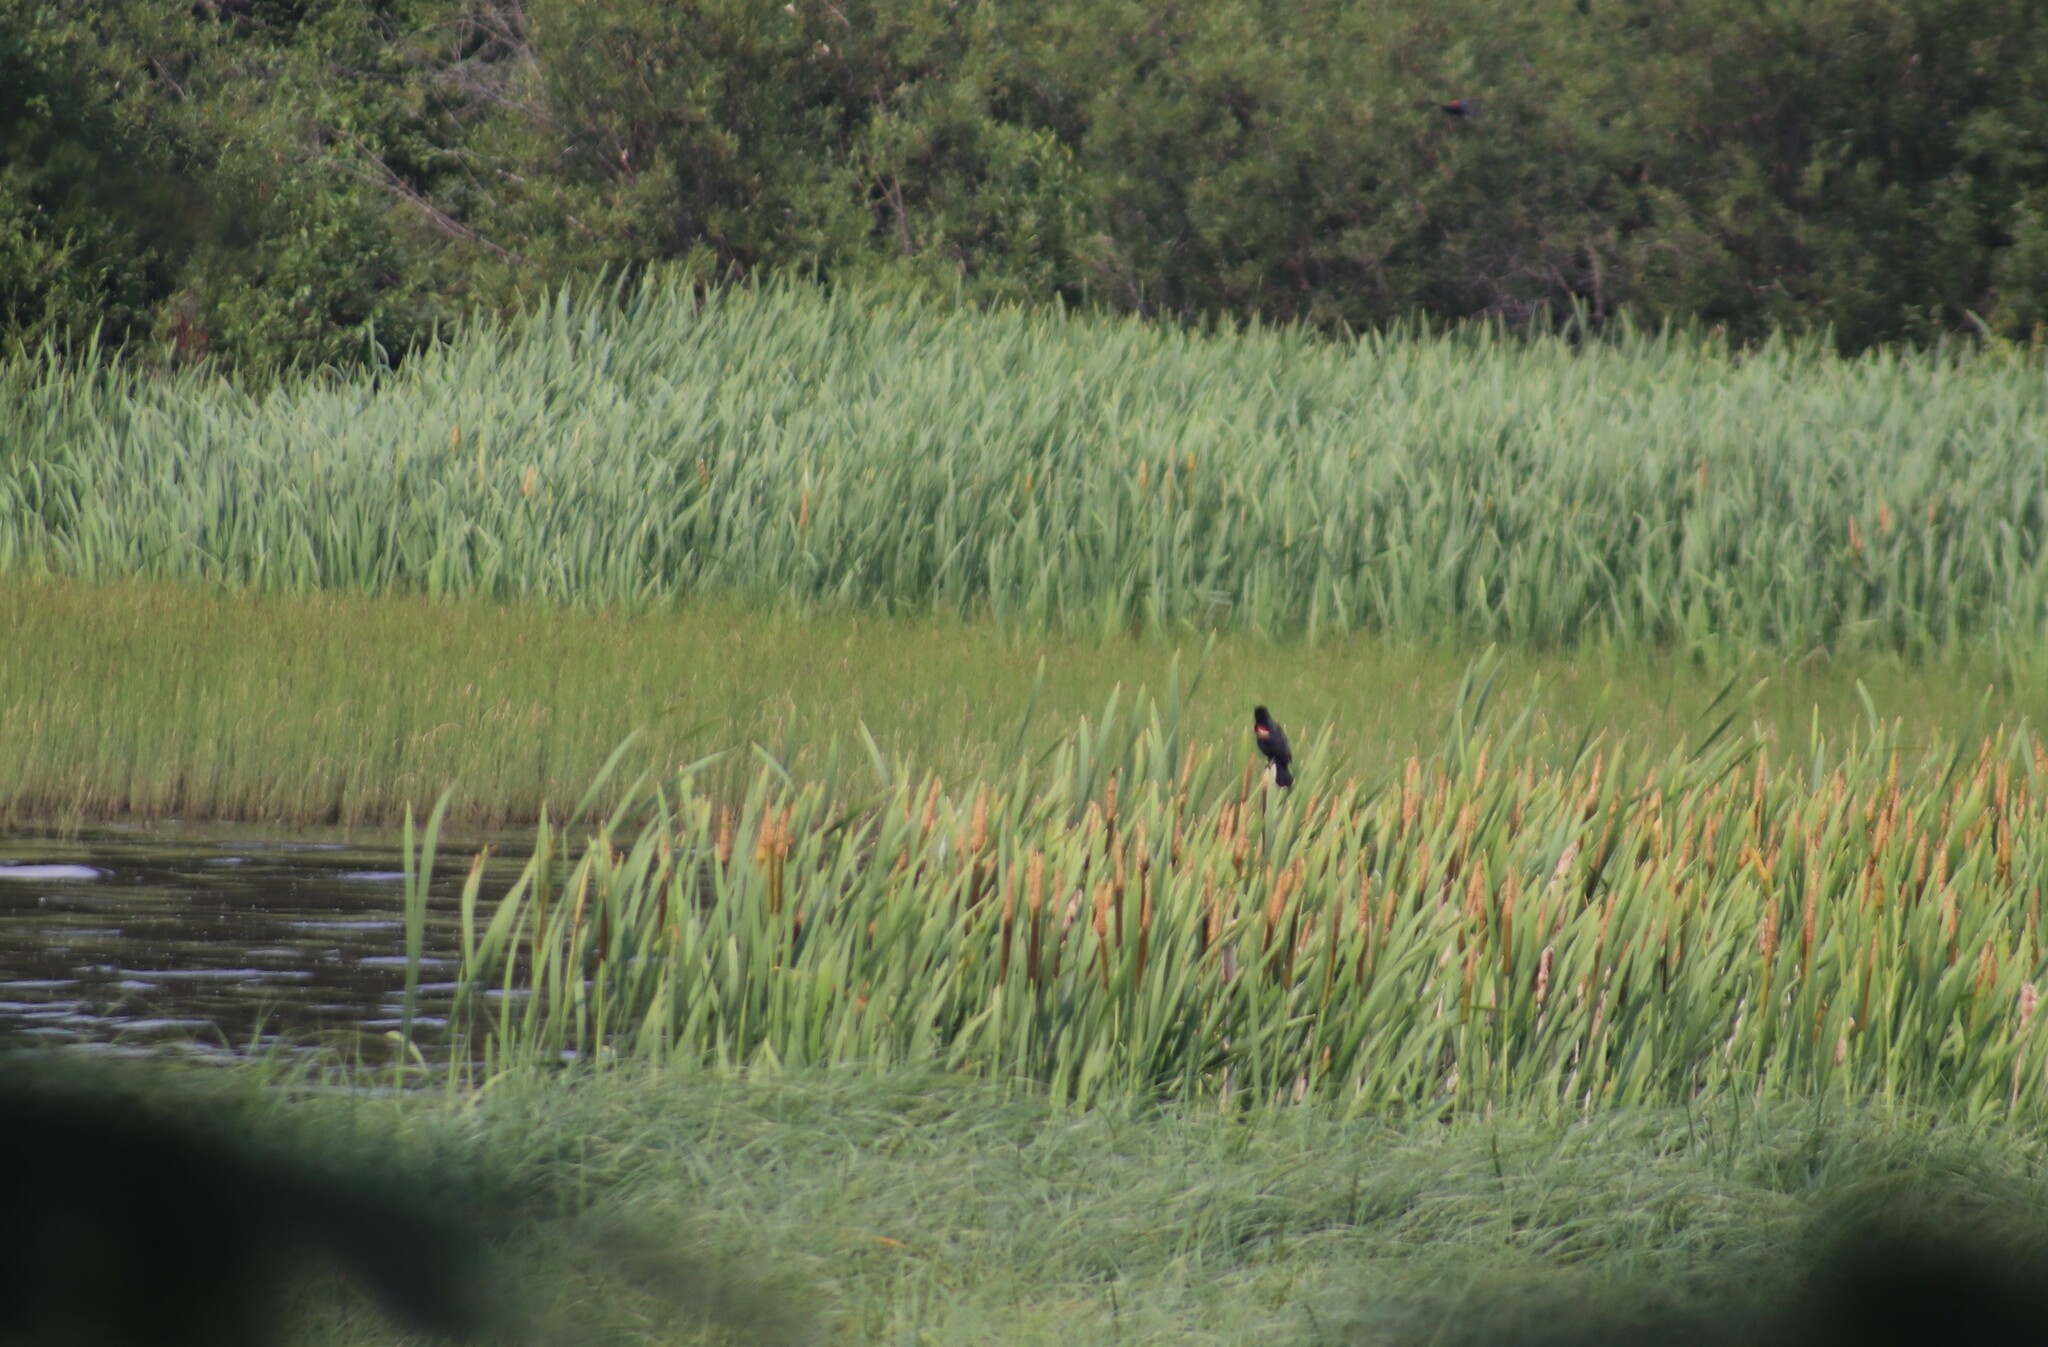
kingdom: Animalia
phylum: Chordata
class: Aves
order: Passeriformes
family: Icteridae
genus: Agelaius
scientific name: Agelaius phoeniceus
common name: Red-winged blackbird
